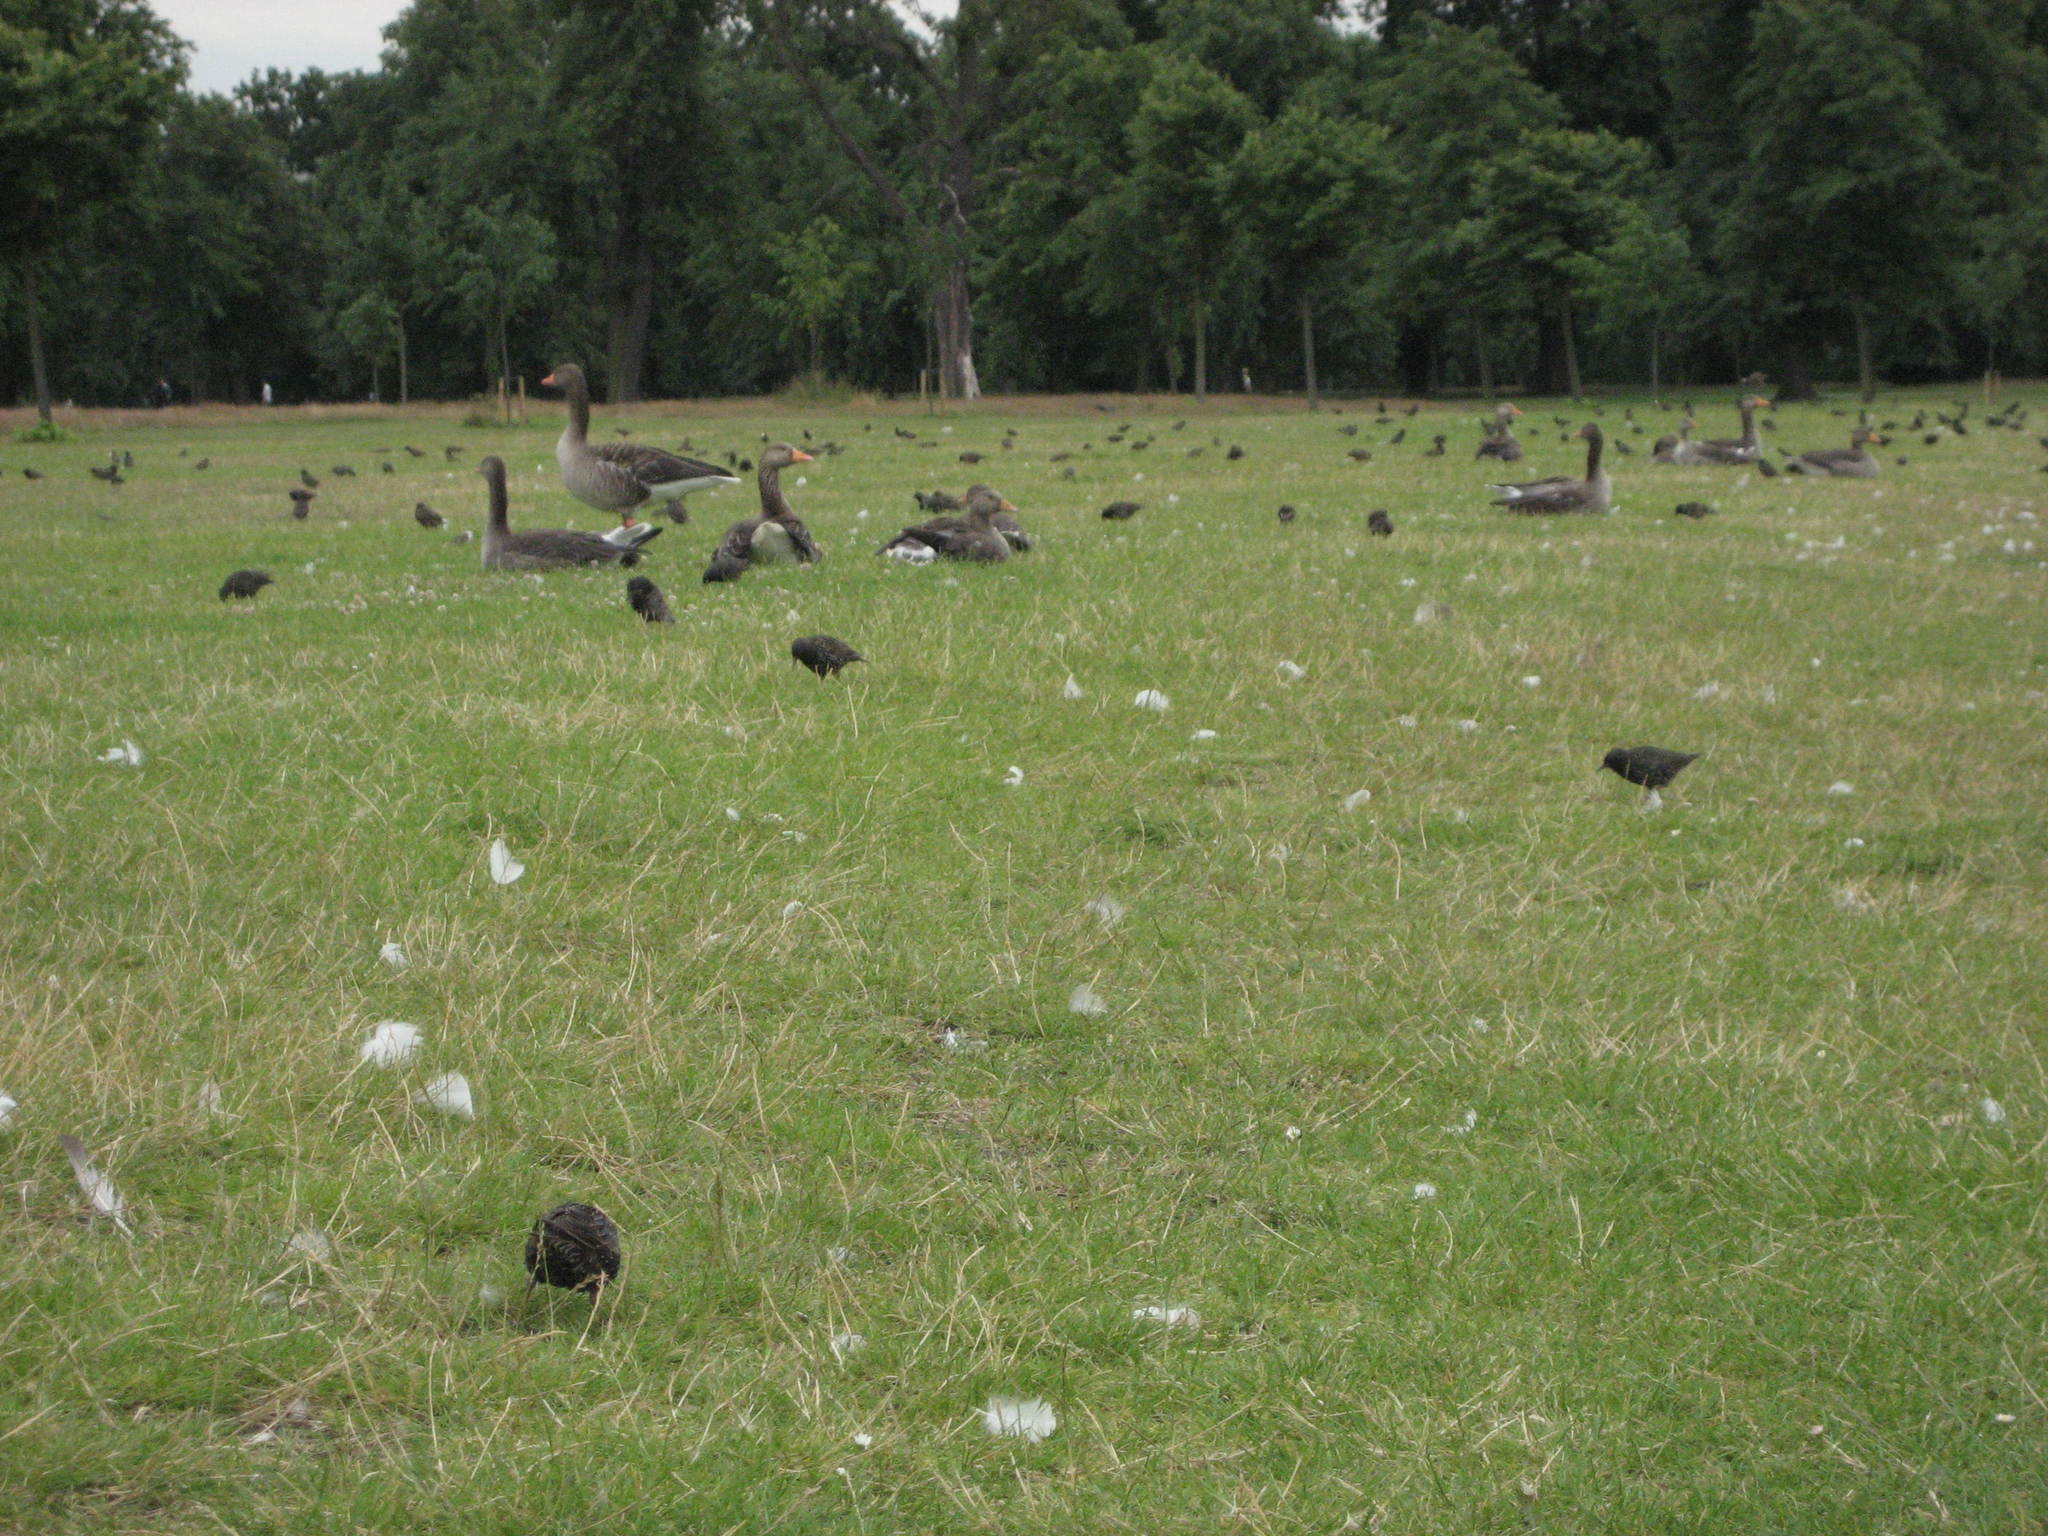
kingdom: Animalia
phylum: Chordata
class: Aves
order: Anseriformes
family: Anatidae
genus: Anser
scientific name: Anser anser
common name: Greylag goose
